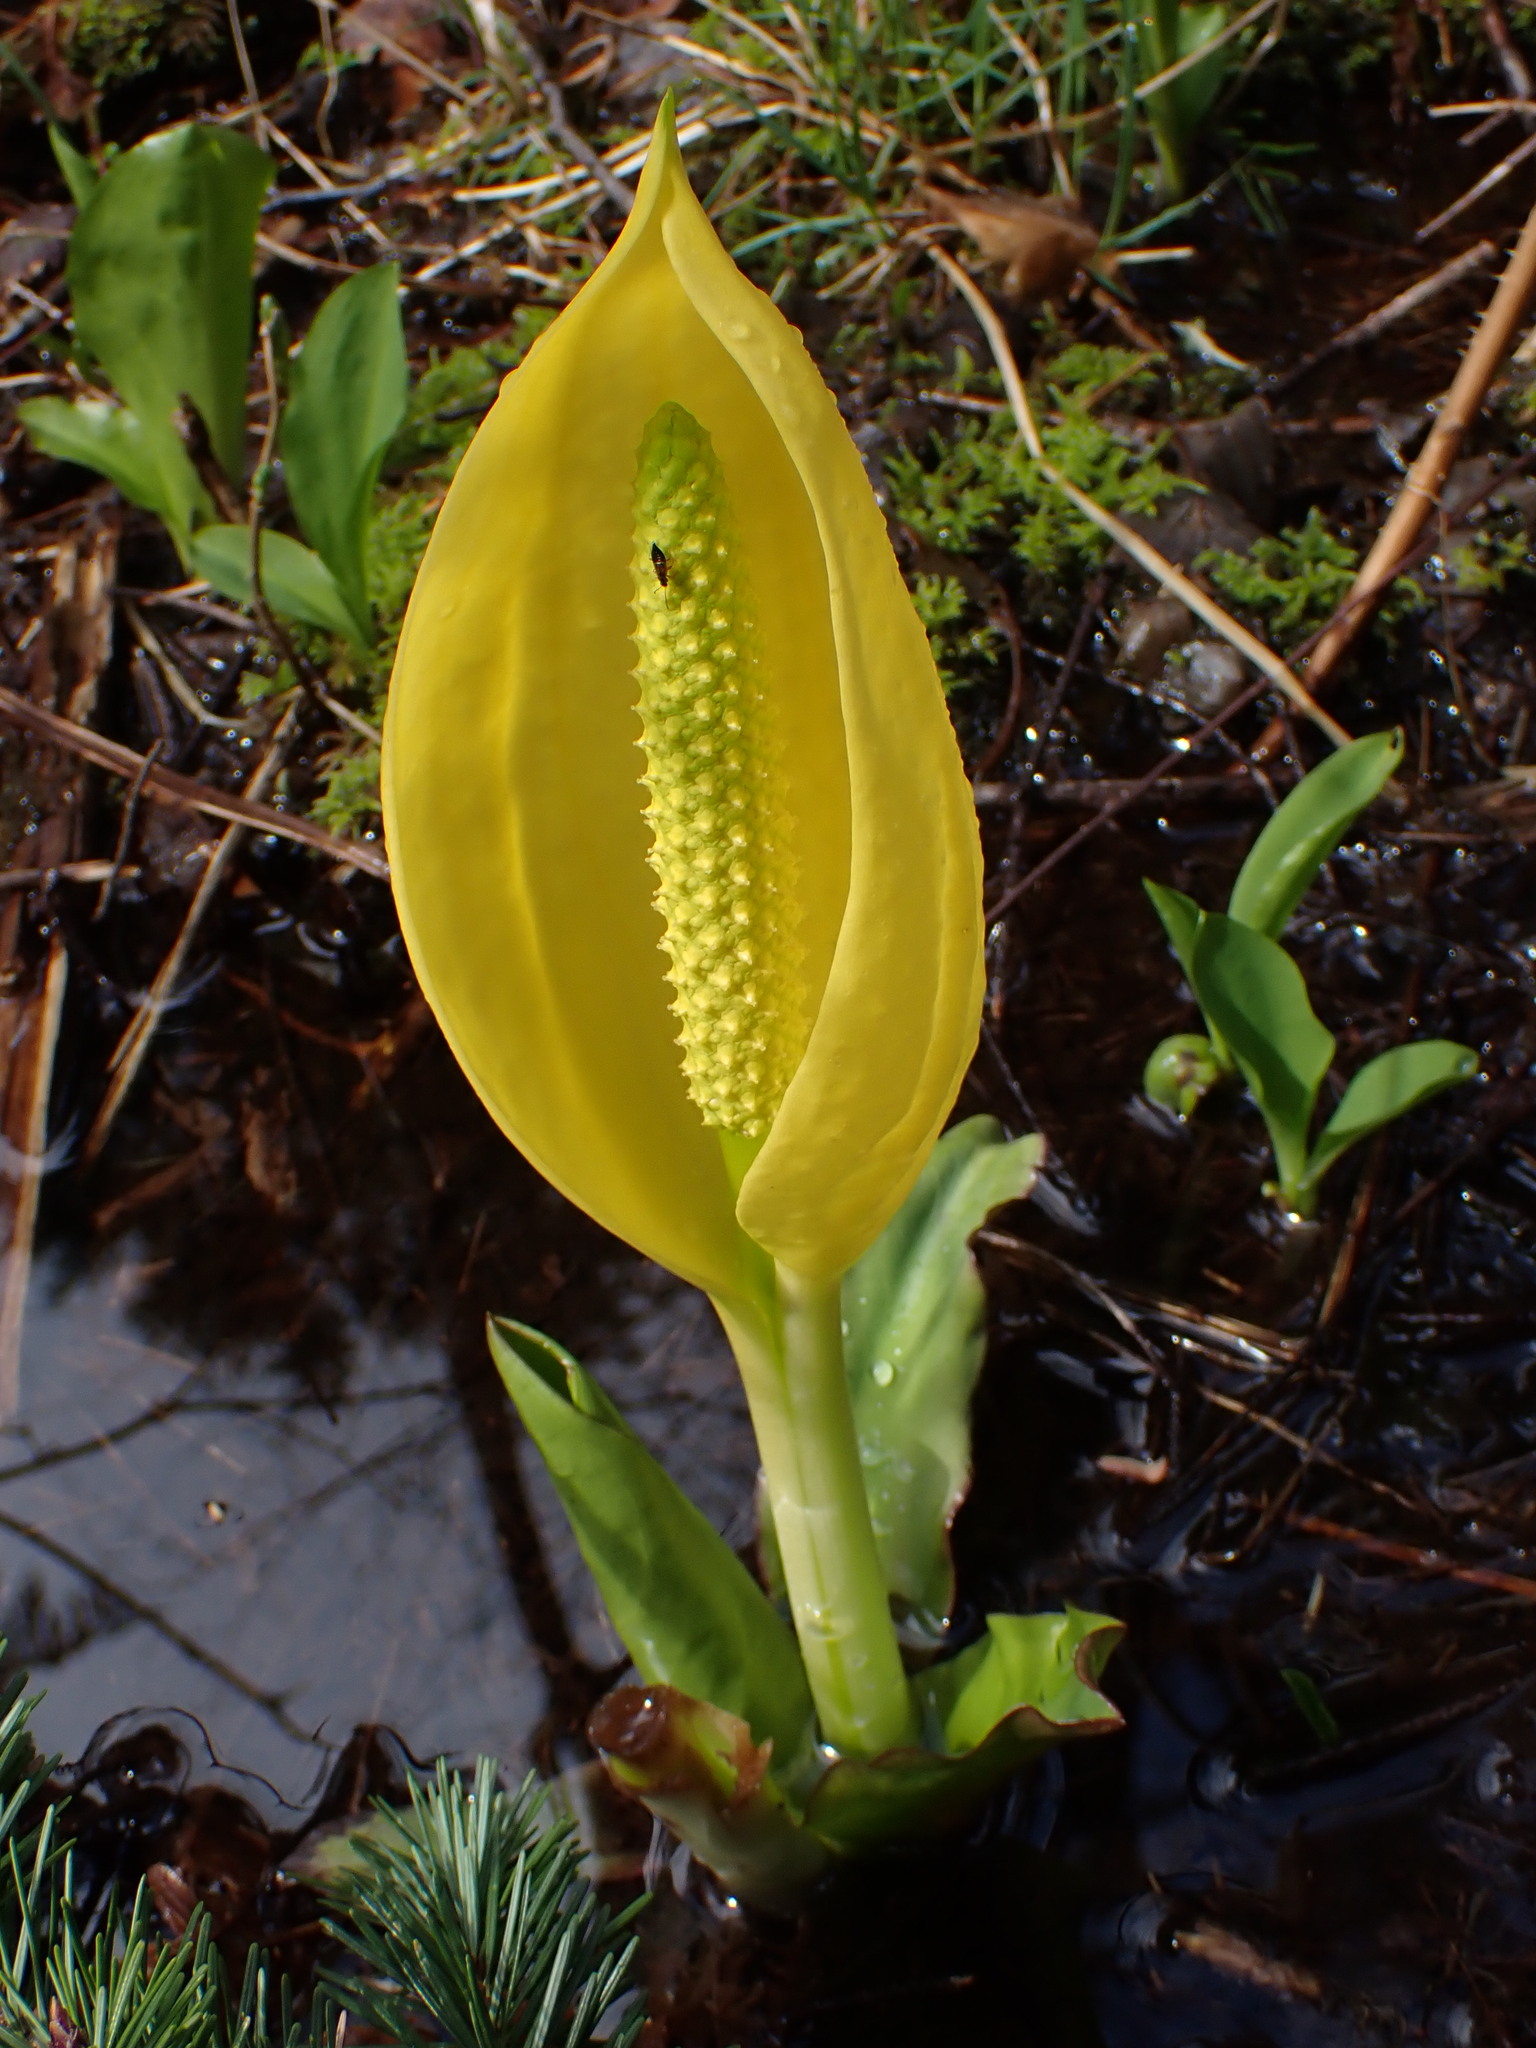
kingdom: Plantae
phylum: Tracheophyta
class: Liliopsida
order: Alismatales
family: Araceae
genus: Lysichiton
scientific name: Lysichiton americanus
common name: American skunk cabbage
